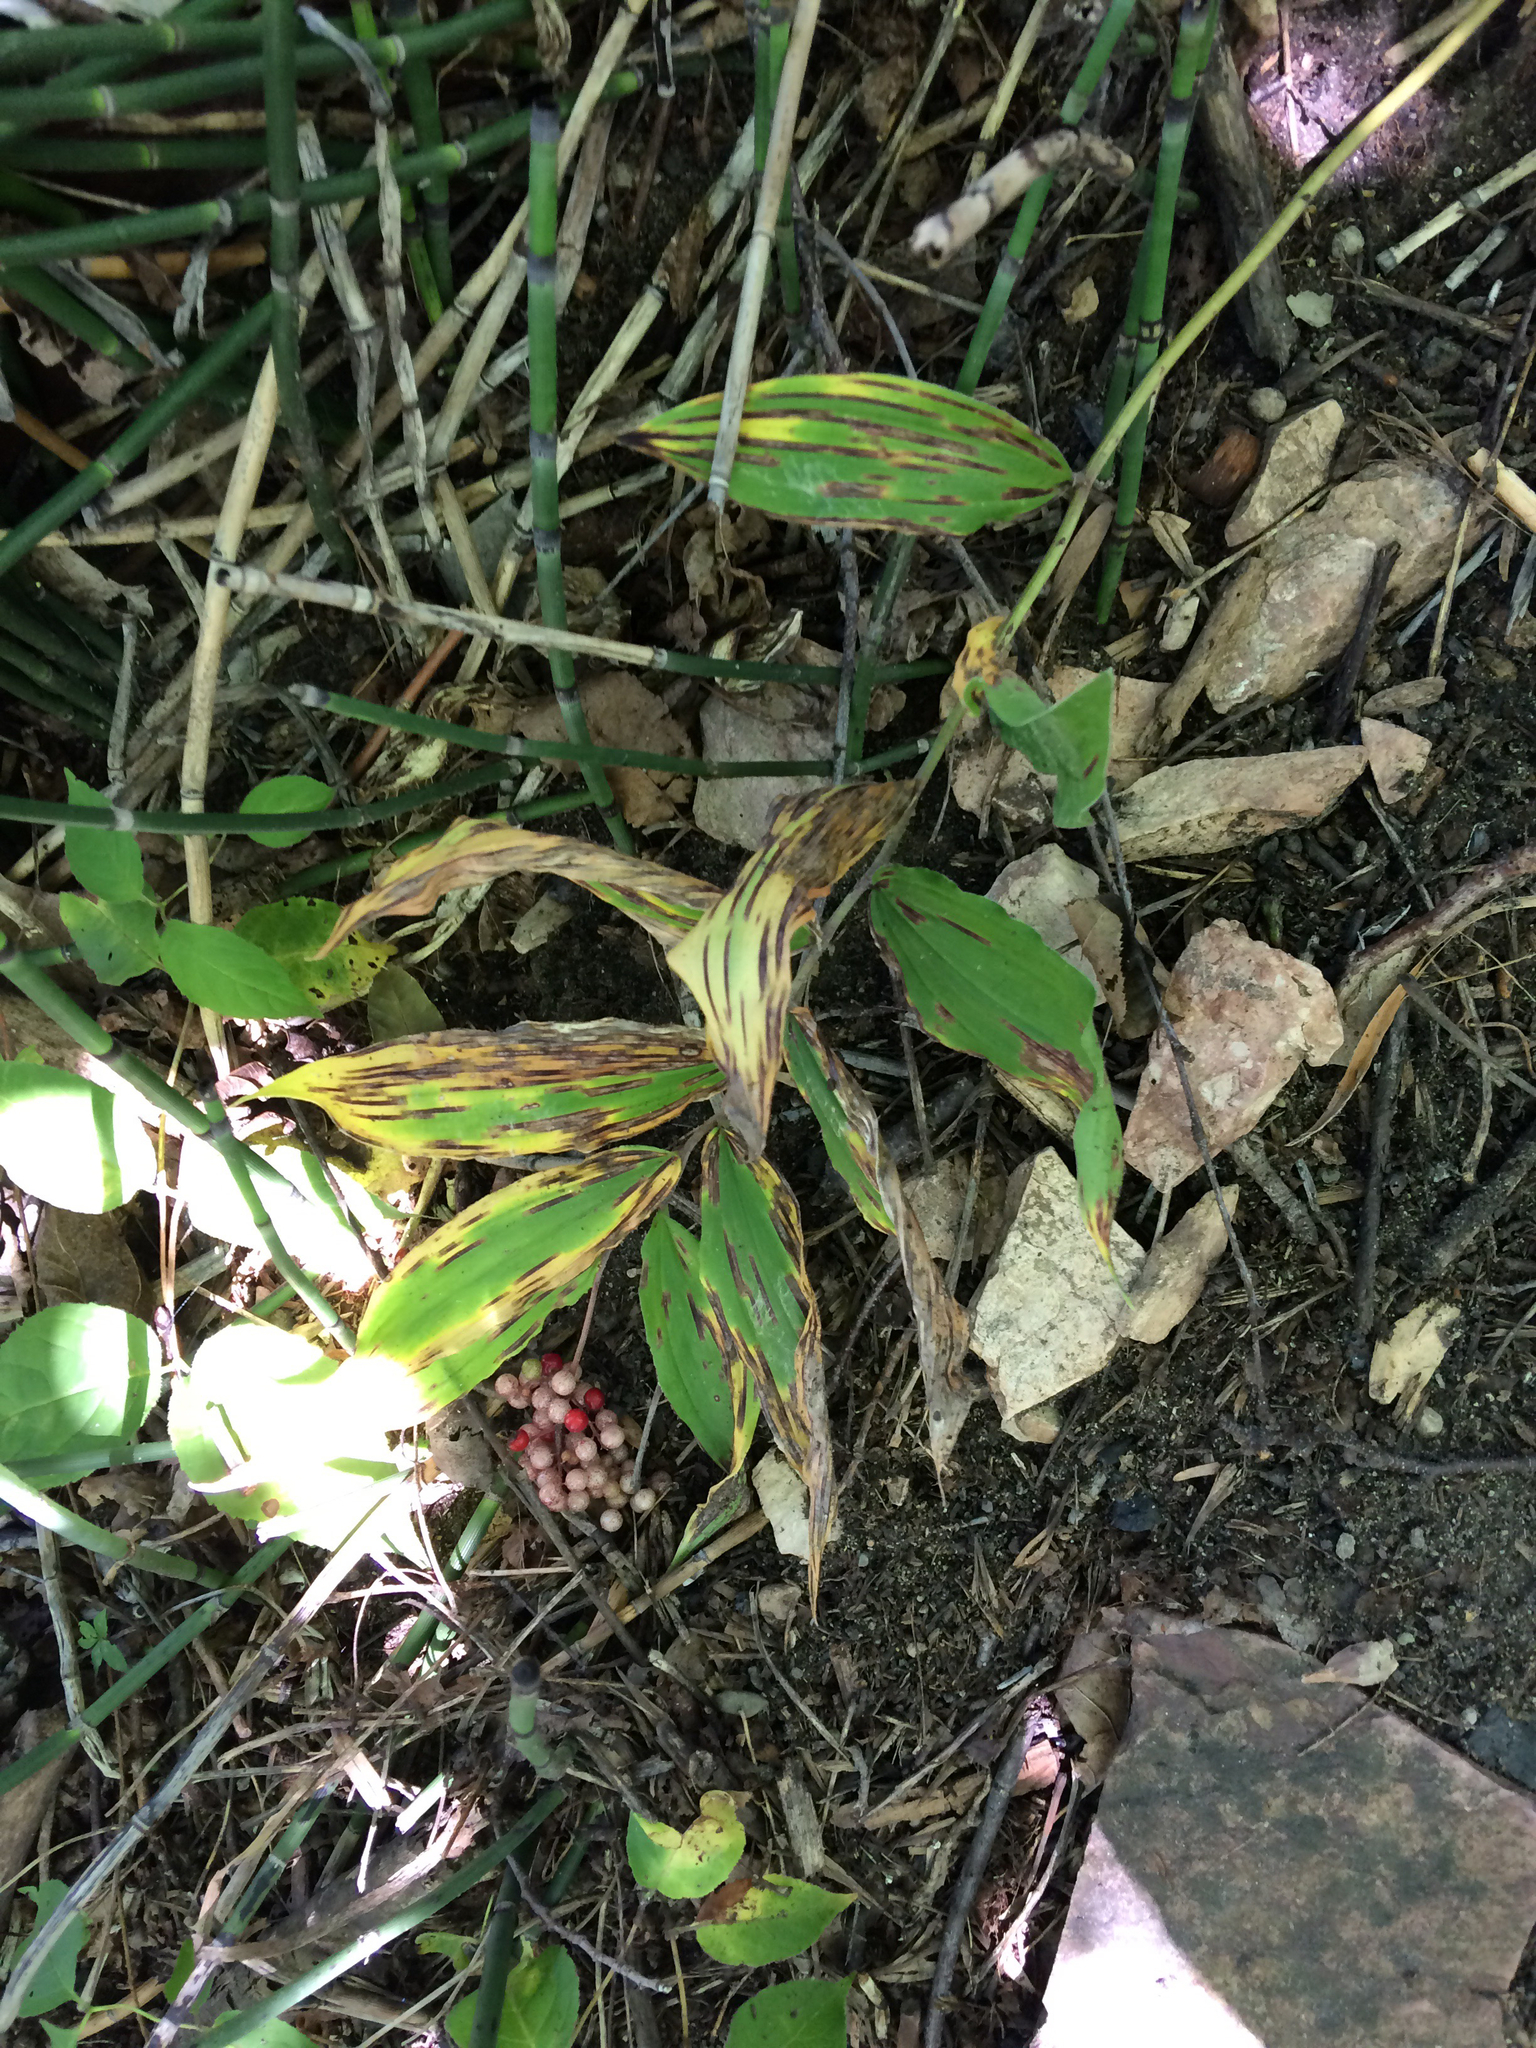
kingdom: Plantae
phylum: Tracheophyta
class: Liliopsida
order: Asparagales
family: Asparagaceae
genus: Maianthemum
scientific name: Maianthemum racemosum
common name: False spikenard
